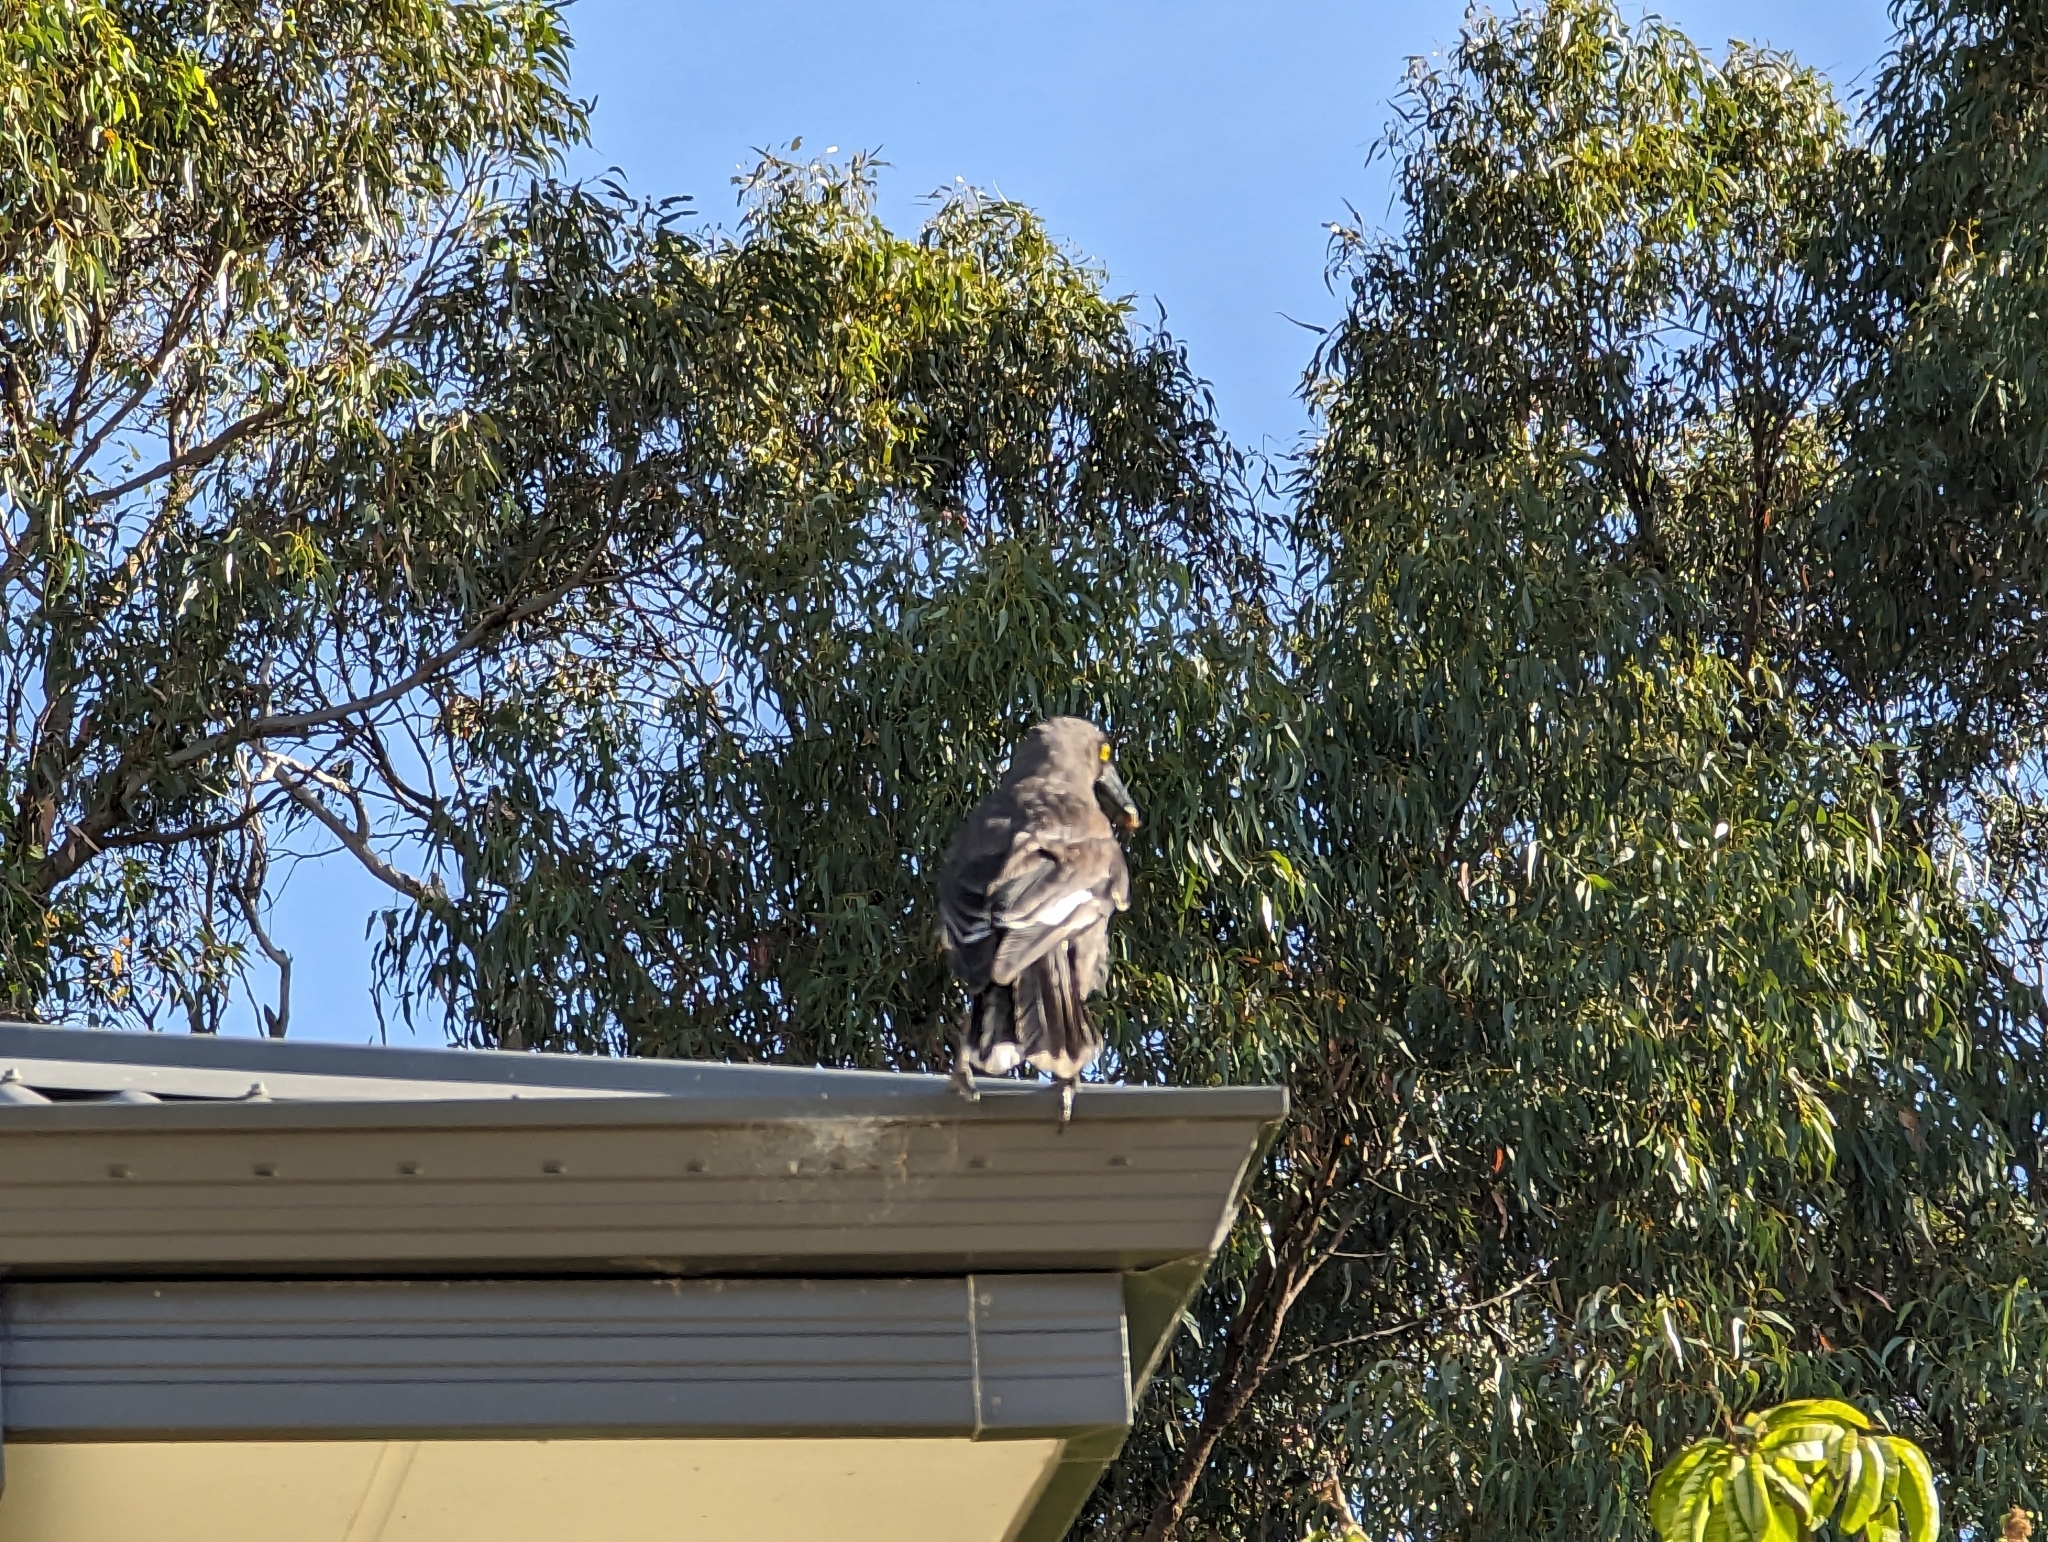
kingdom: Animalia
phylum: Chordata
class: Aves
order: Passeriformes
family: Cracticidae
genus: Strepera
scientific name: Strepera versicolor
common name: Grey currawong
